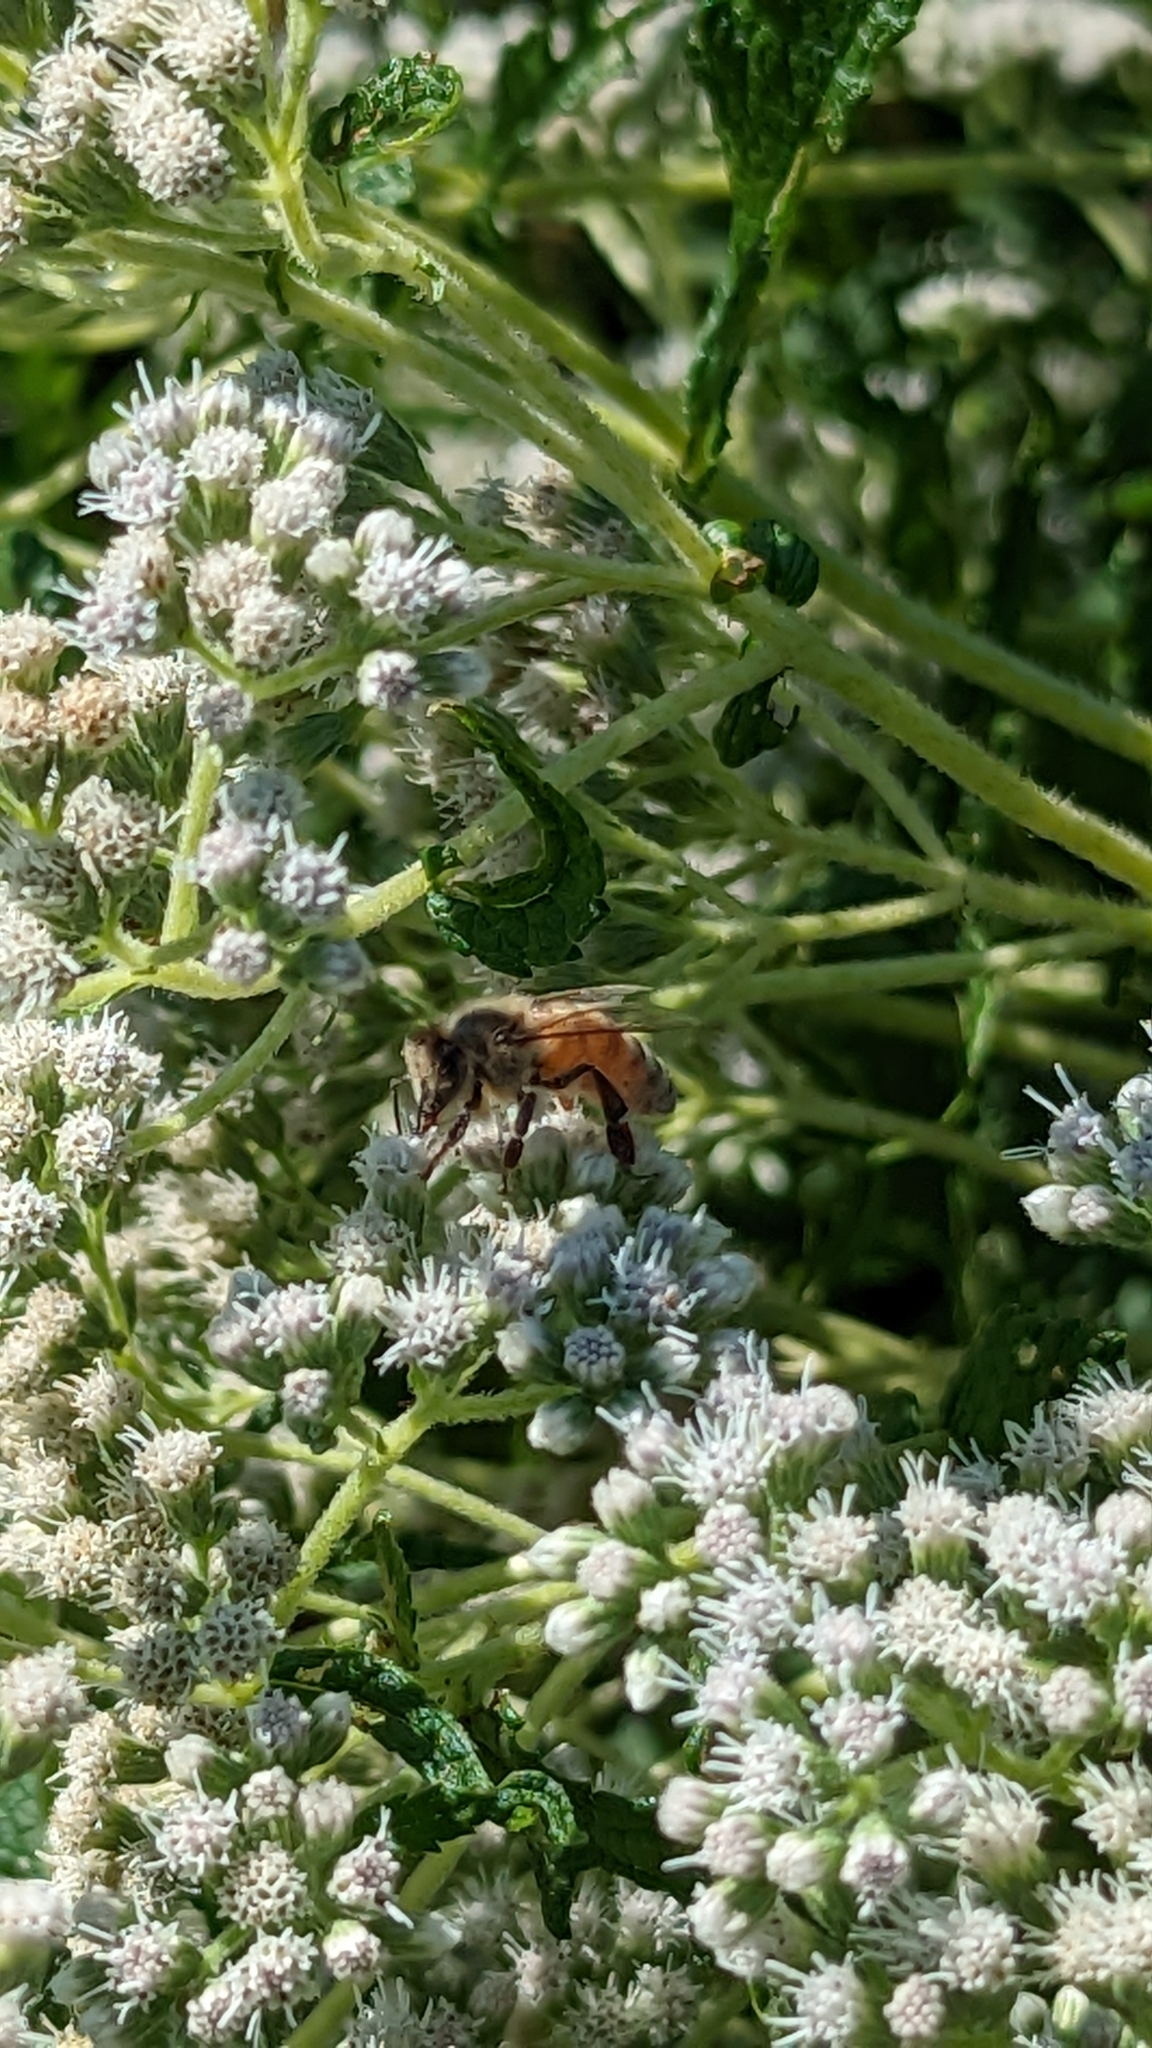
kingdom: Animalia
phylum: Arthropoda
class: Insecta
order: Hymenoptera
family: Apidae
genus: Apis
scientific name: Apis mellifera
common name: Honey bee
